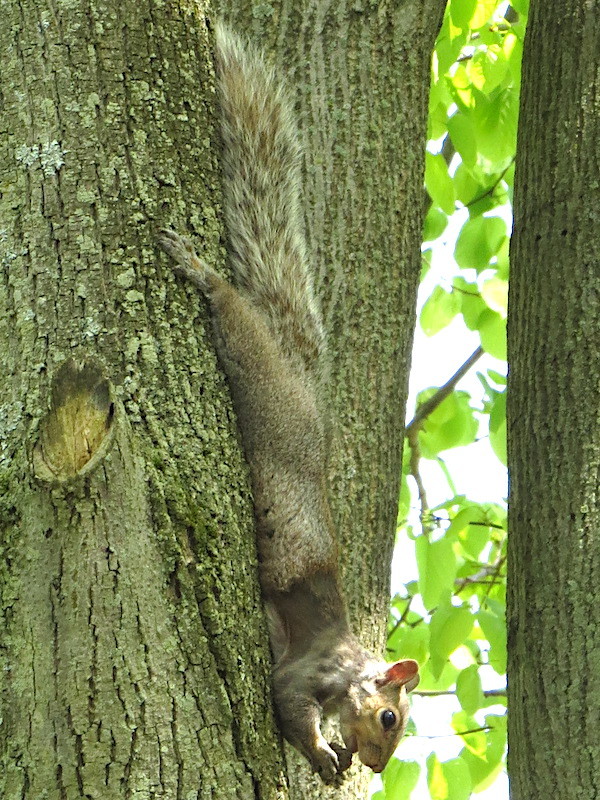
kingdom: Animalia
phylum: Chordata
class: Mammalia
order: Rodentia
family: Sciuridae
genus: Sciurus
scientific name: Sciurus carolinensis
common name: Eastern gray squirrel
